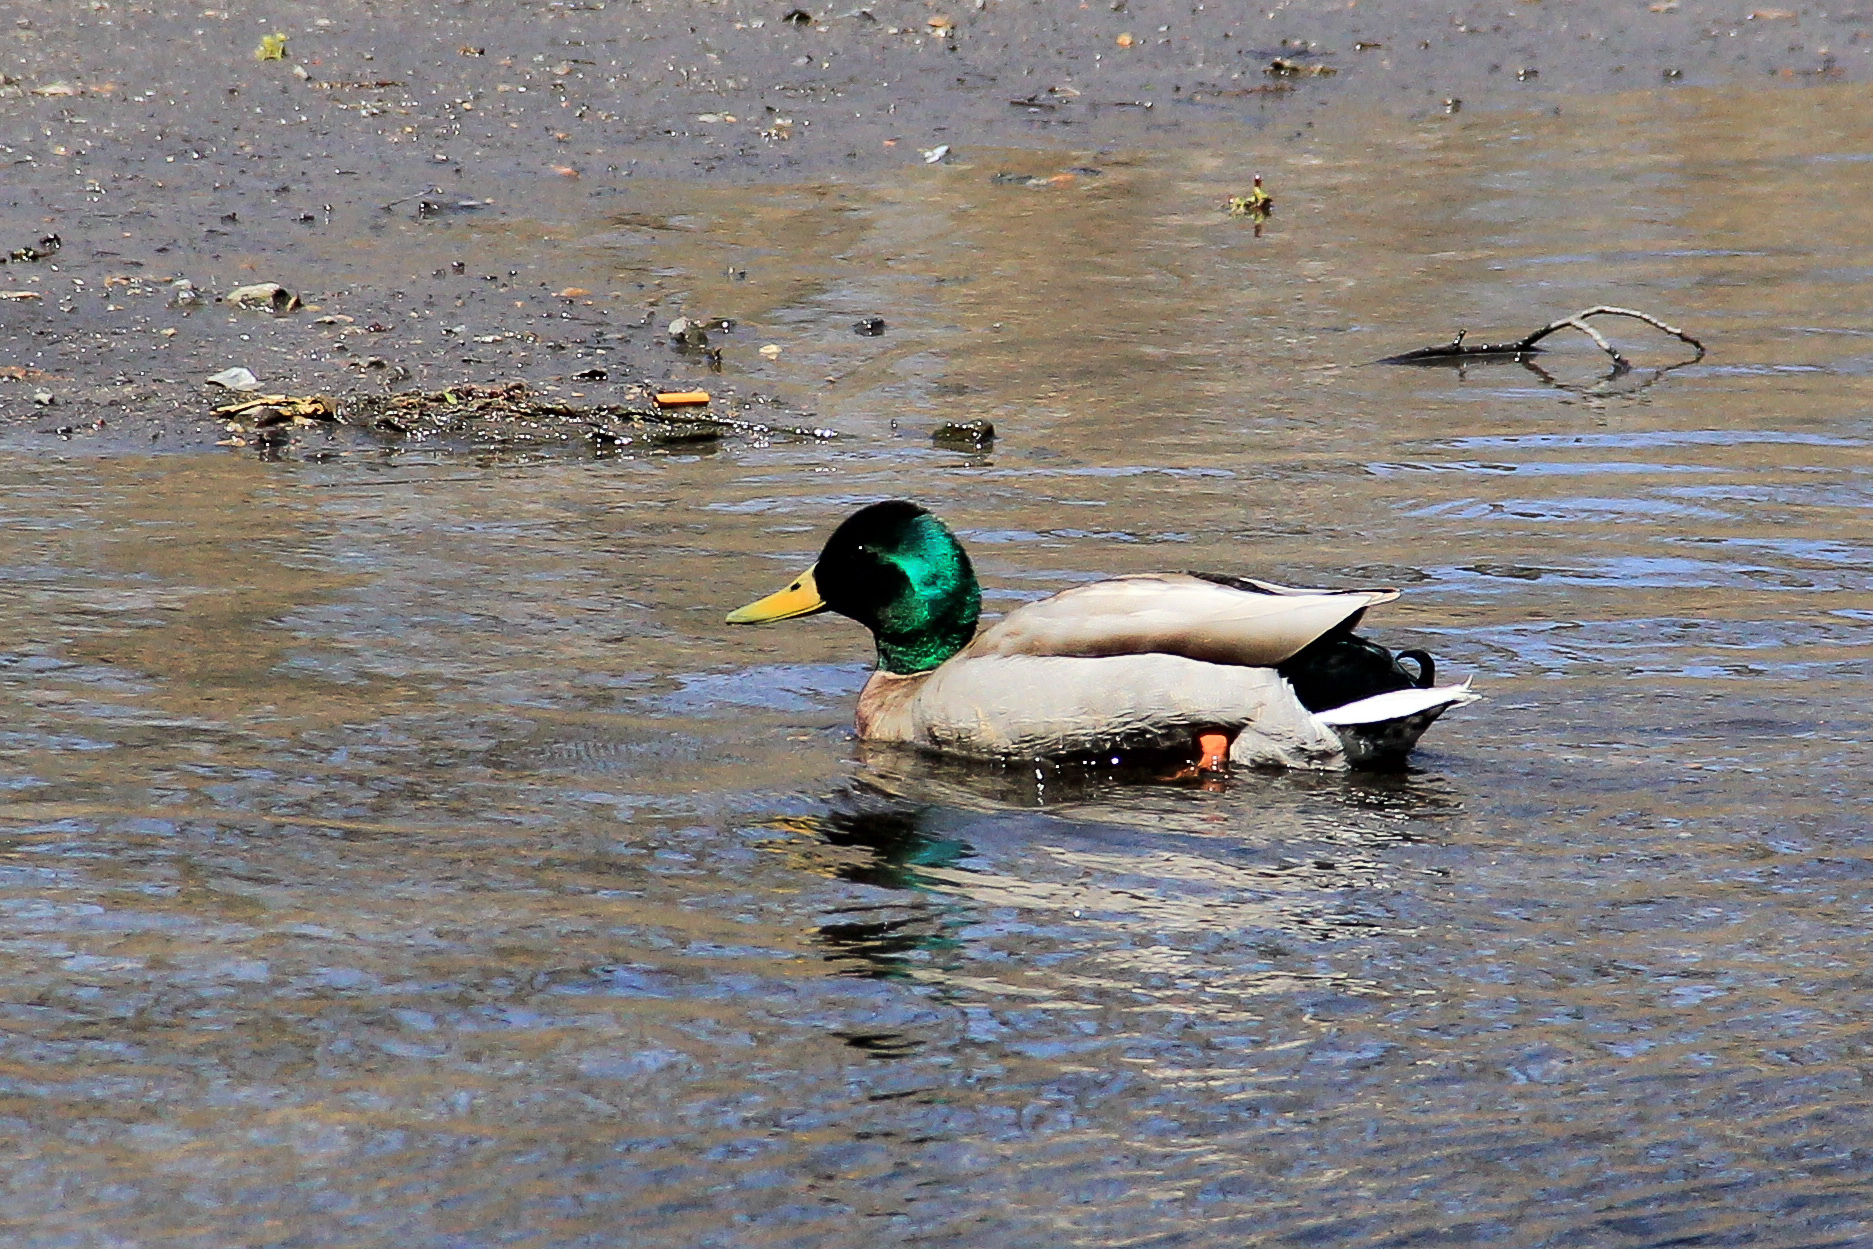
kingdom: Animalia
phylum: Chordata
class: Aves
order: Anseriformes
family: Anatidae
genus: Anas
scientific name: Anas platyrhynchos
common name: Mallard
